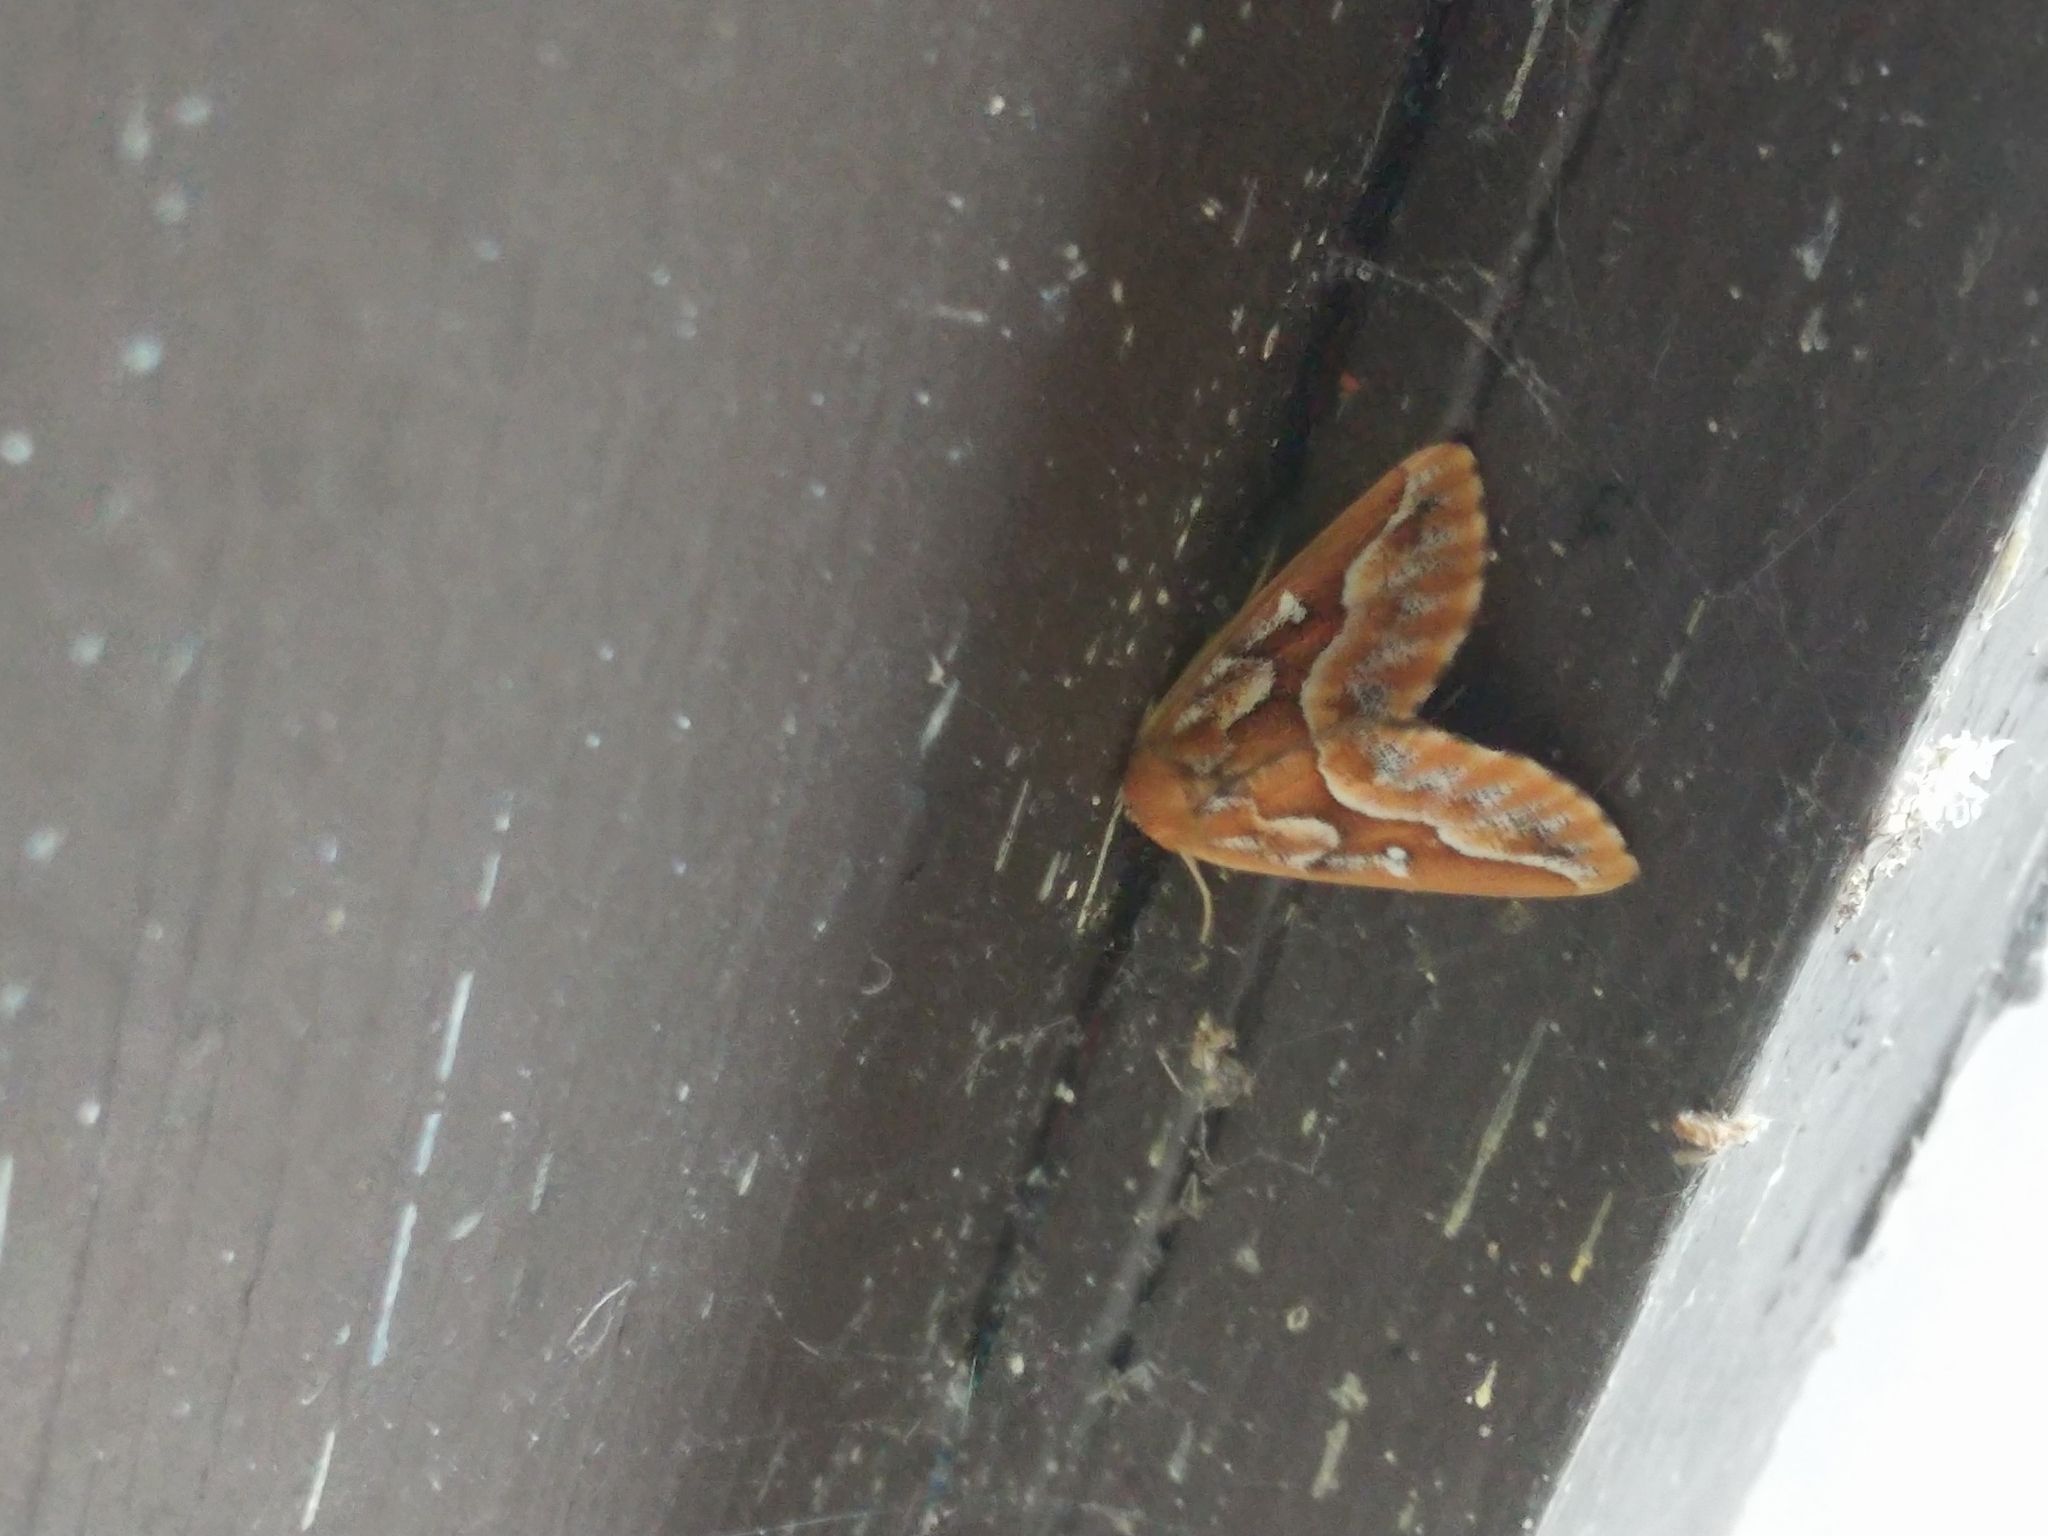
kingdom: Animalia
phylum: Arthropoda
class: Insecta
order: Lepidoptera
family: Geometridae
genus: Caripeta
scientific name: Caripeta piniata
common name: Northern pine looper moth
